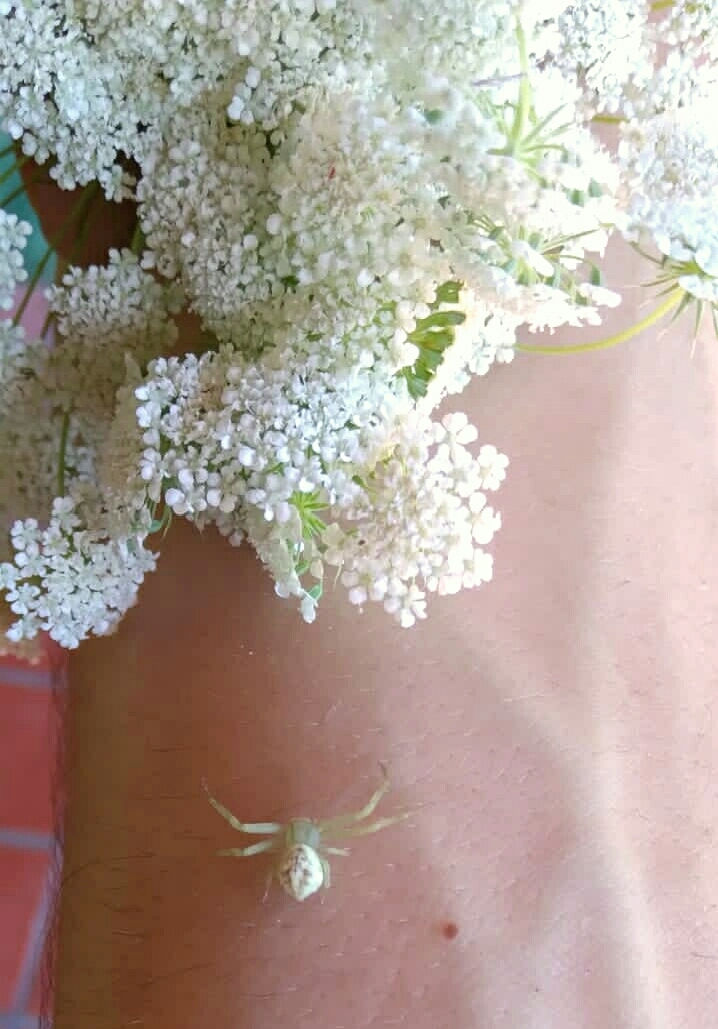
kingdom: Animalia
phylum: Arthropoda
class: Arachnida
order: Araneae
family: Thomisidae
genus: Misumenops
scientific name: Misumenops
